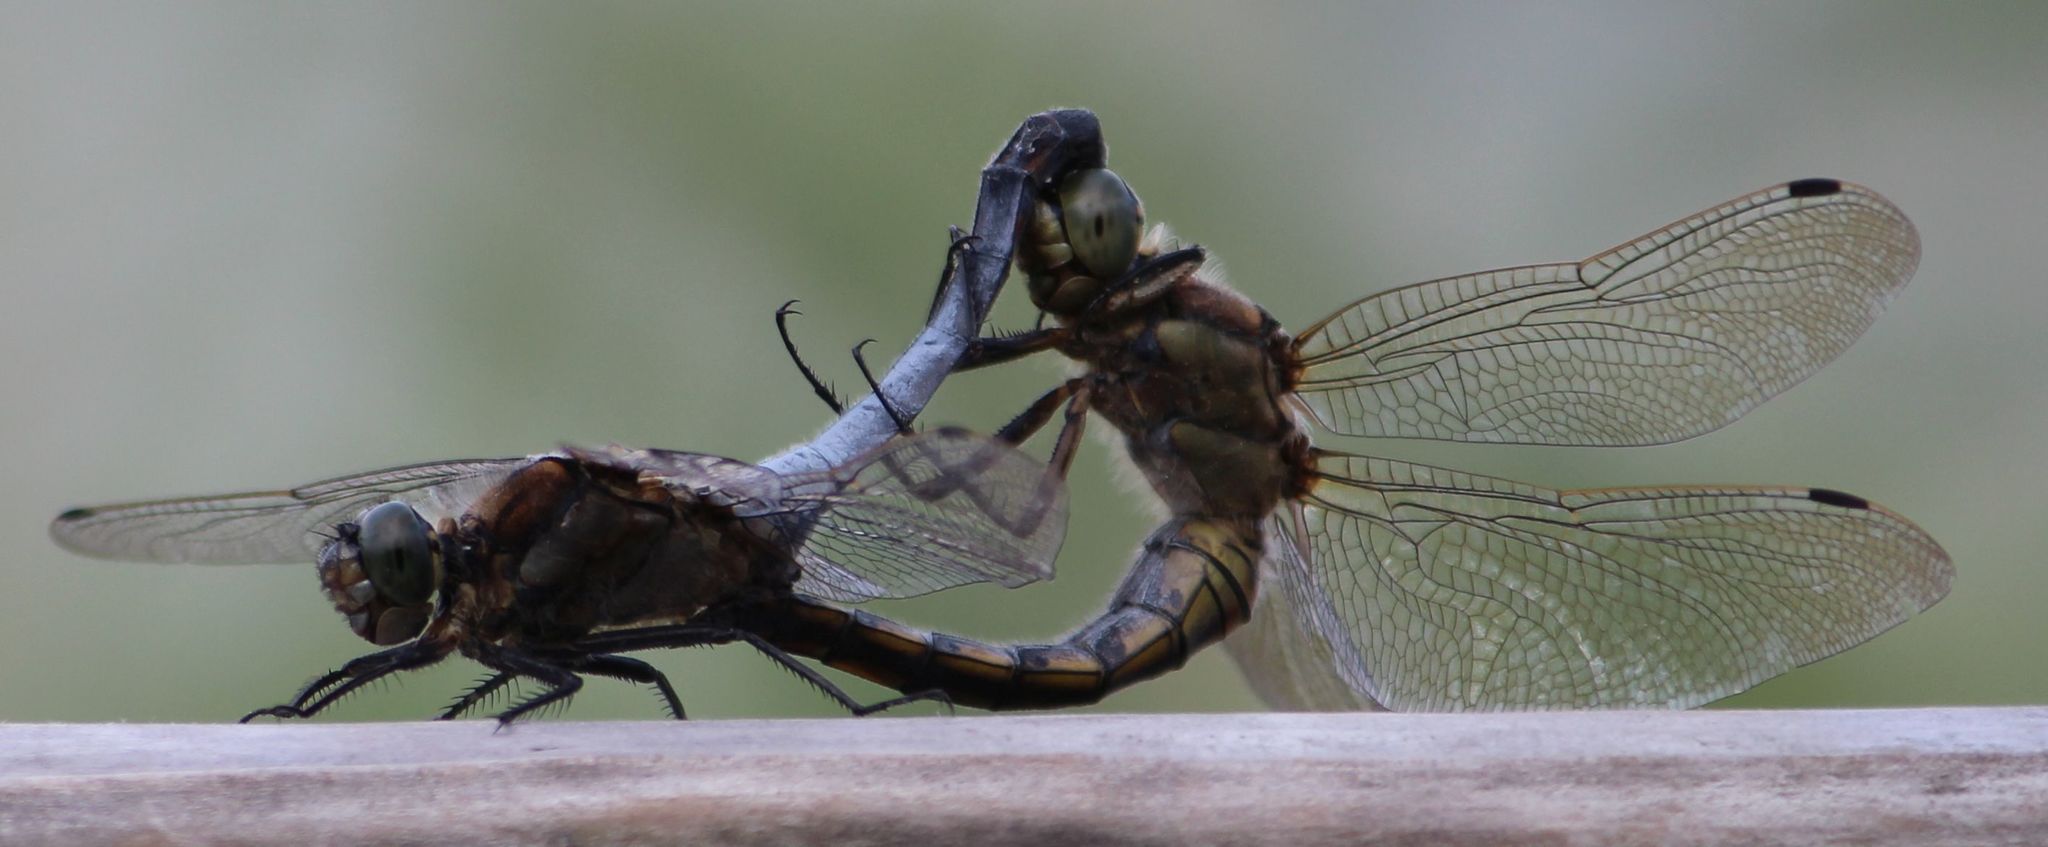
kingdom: Animalia
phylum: Arthropoda
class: Insecta
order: Odonata
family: Libellulidae
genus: Orthetrum
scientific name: Orthetrum cancellatum
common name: Black-tailed skimmer
